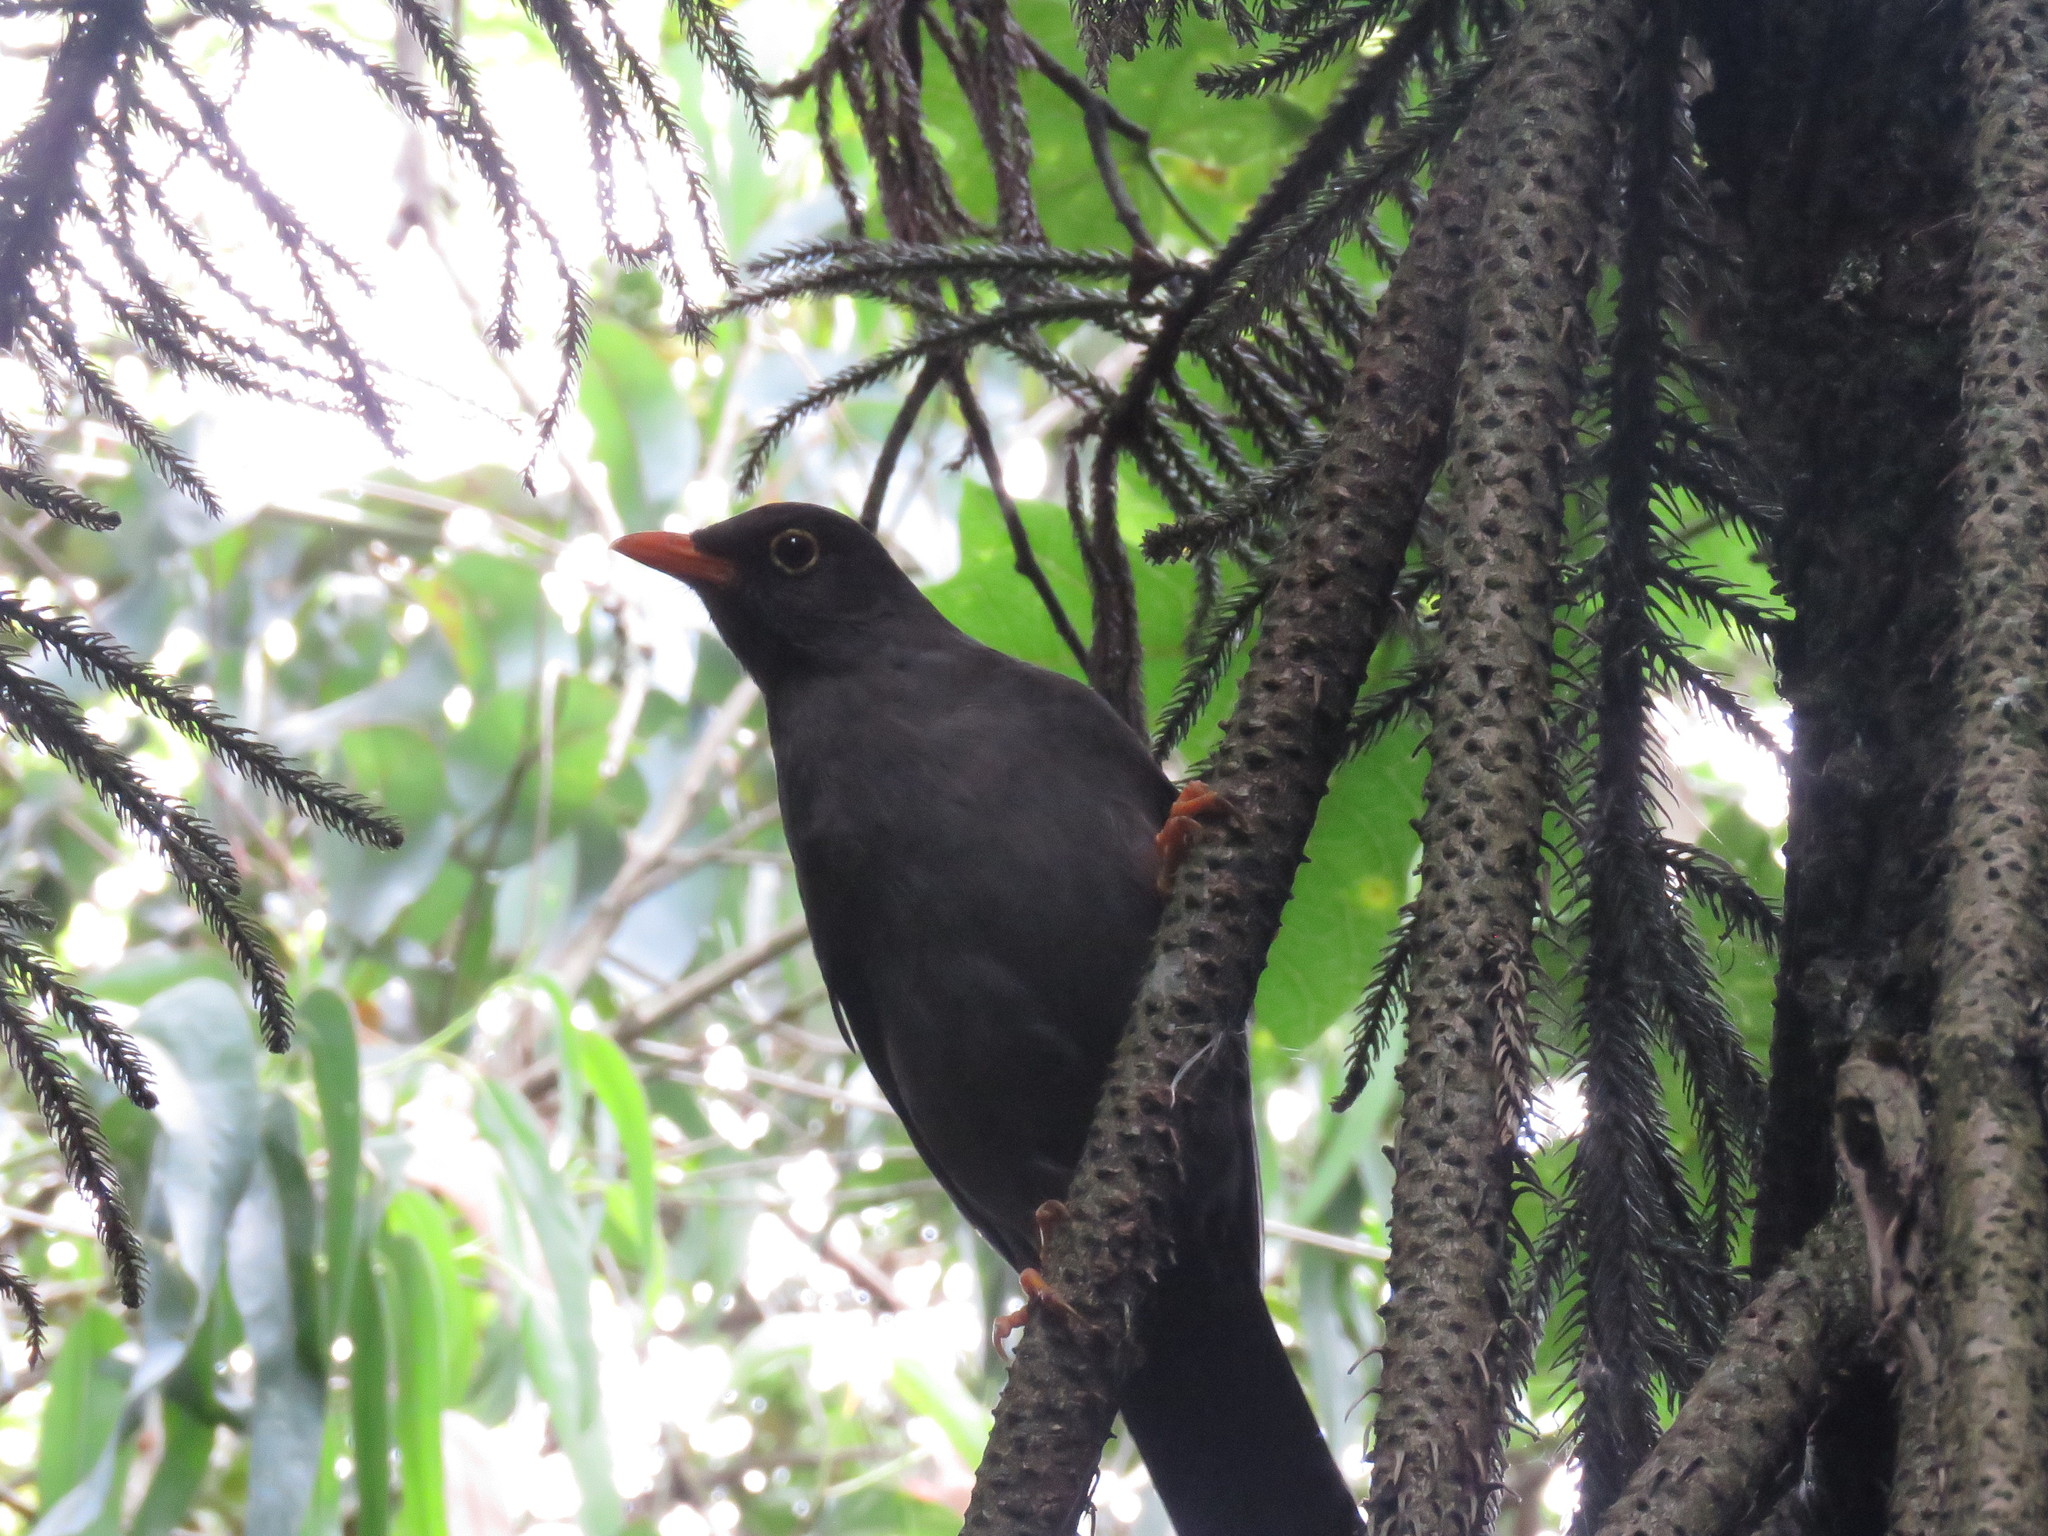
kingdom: Animalia
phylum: Chordata
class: Aves
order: Passeriformes
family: Turdidae
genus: Turdus
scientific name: Turdus fuscater
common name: Great thrush
